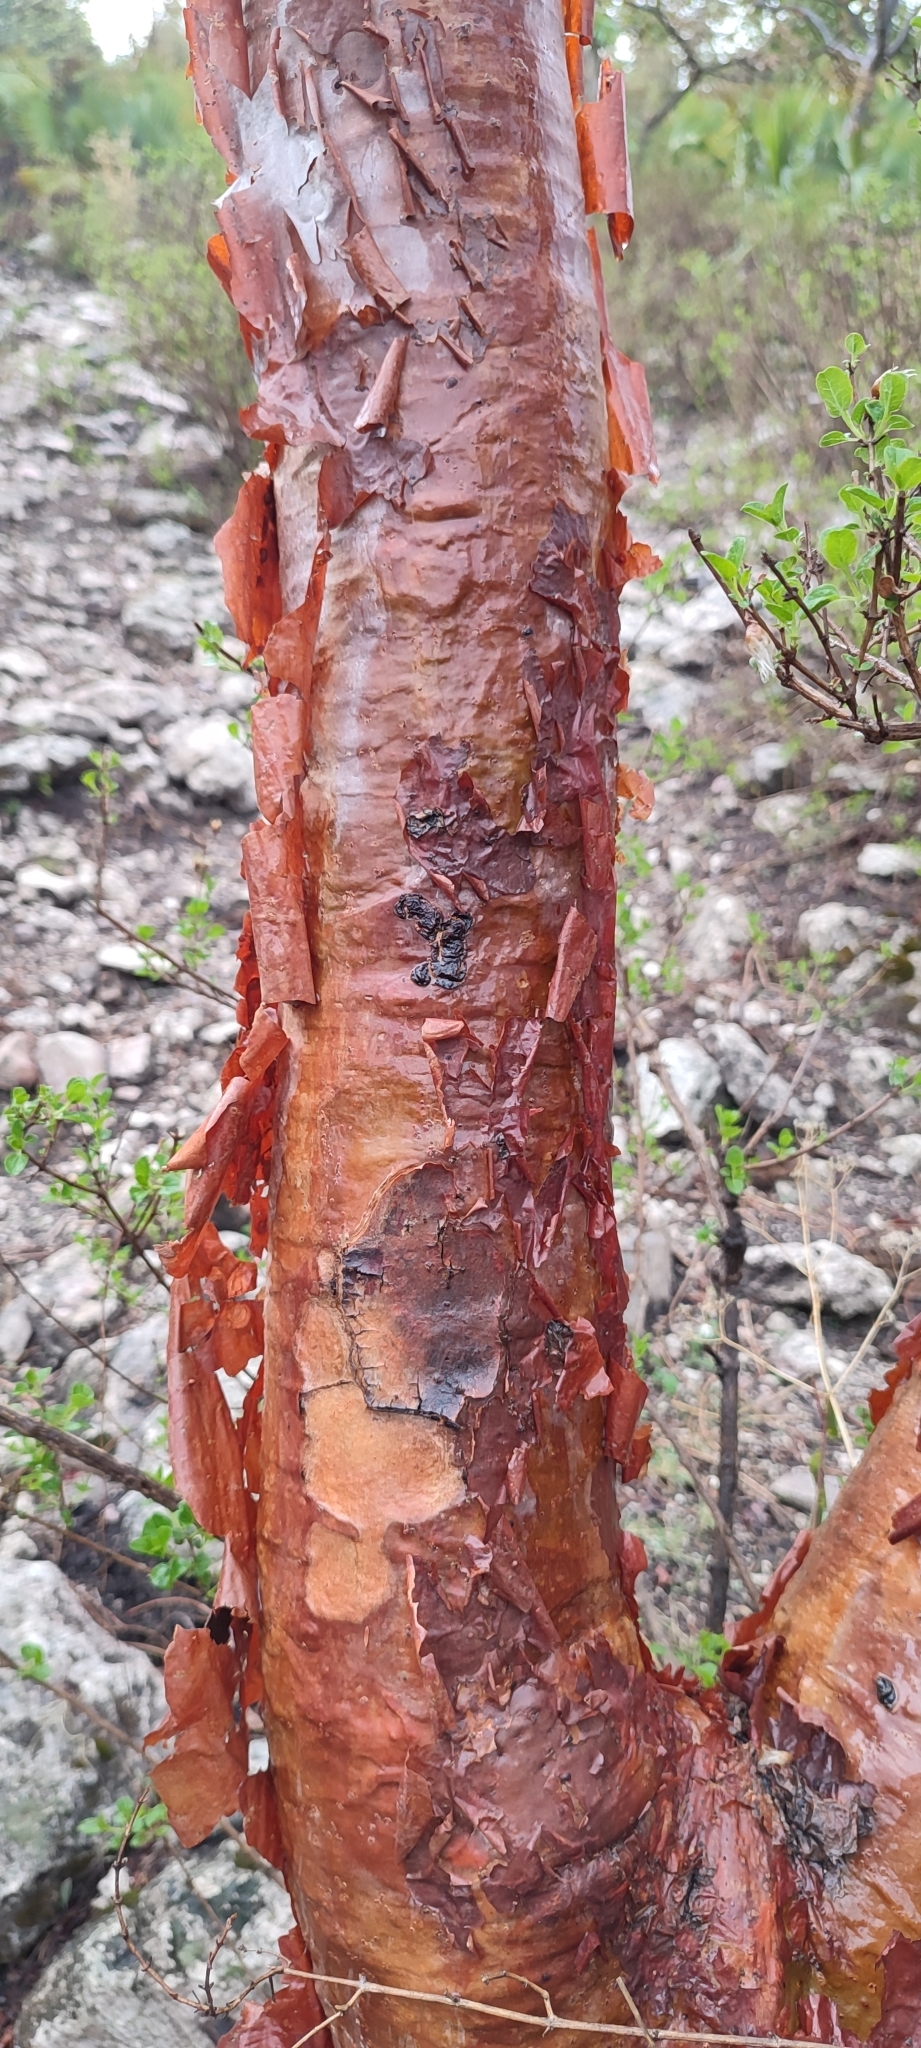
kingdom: Plantae
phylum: Tracheophyta
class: Magnoliopsida
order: Sapindales
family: Anacardiaceae
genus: Pseudosmodingium
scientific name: Pseudosmodingium perniciosum
